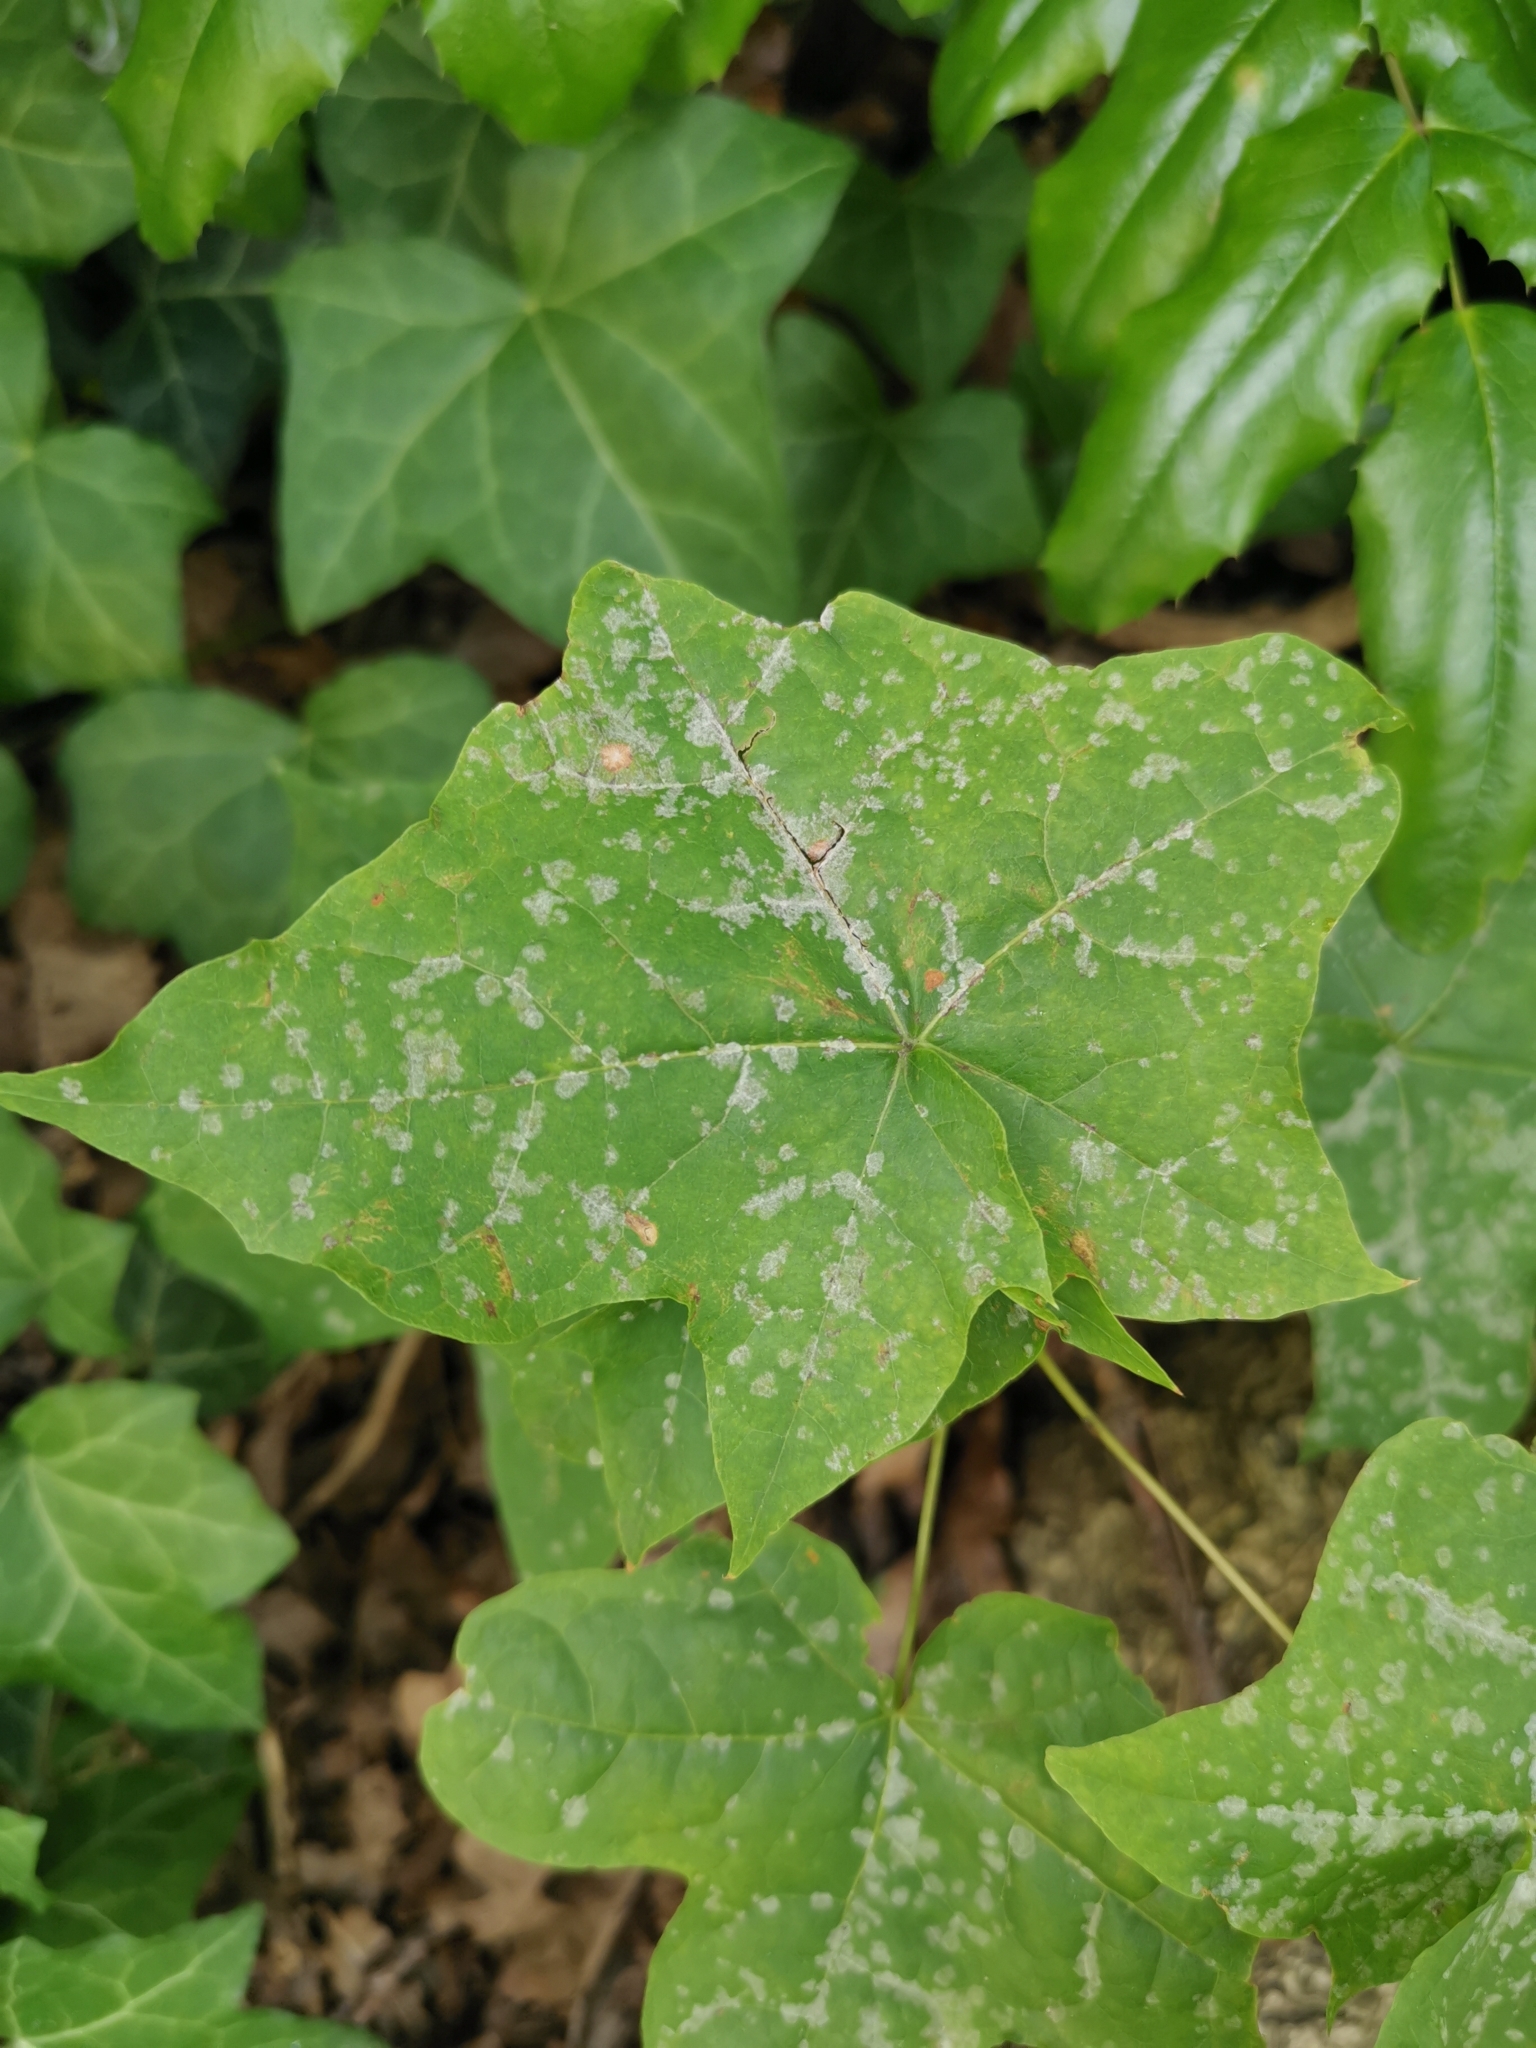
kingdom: Fungi
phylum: Ascomycota
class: Leotiomycetes
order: Helotiales
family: Erysiphaceae
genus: Sawadaea
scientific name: Sawadaea tulasnei
